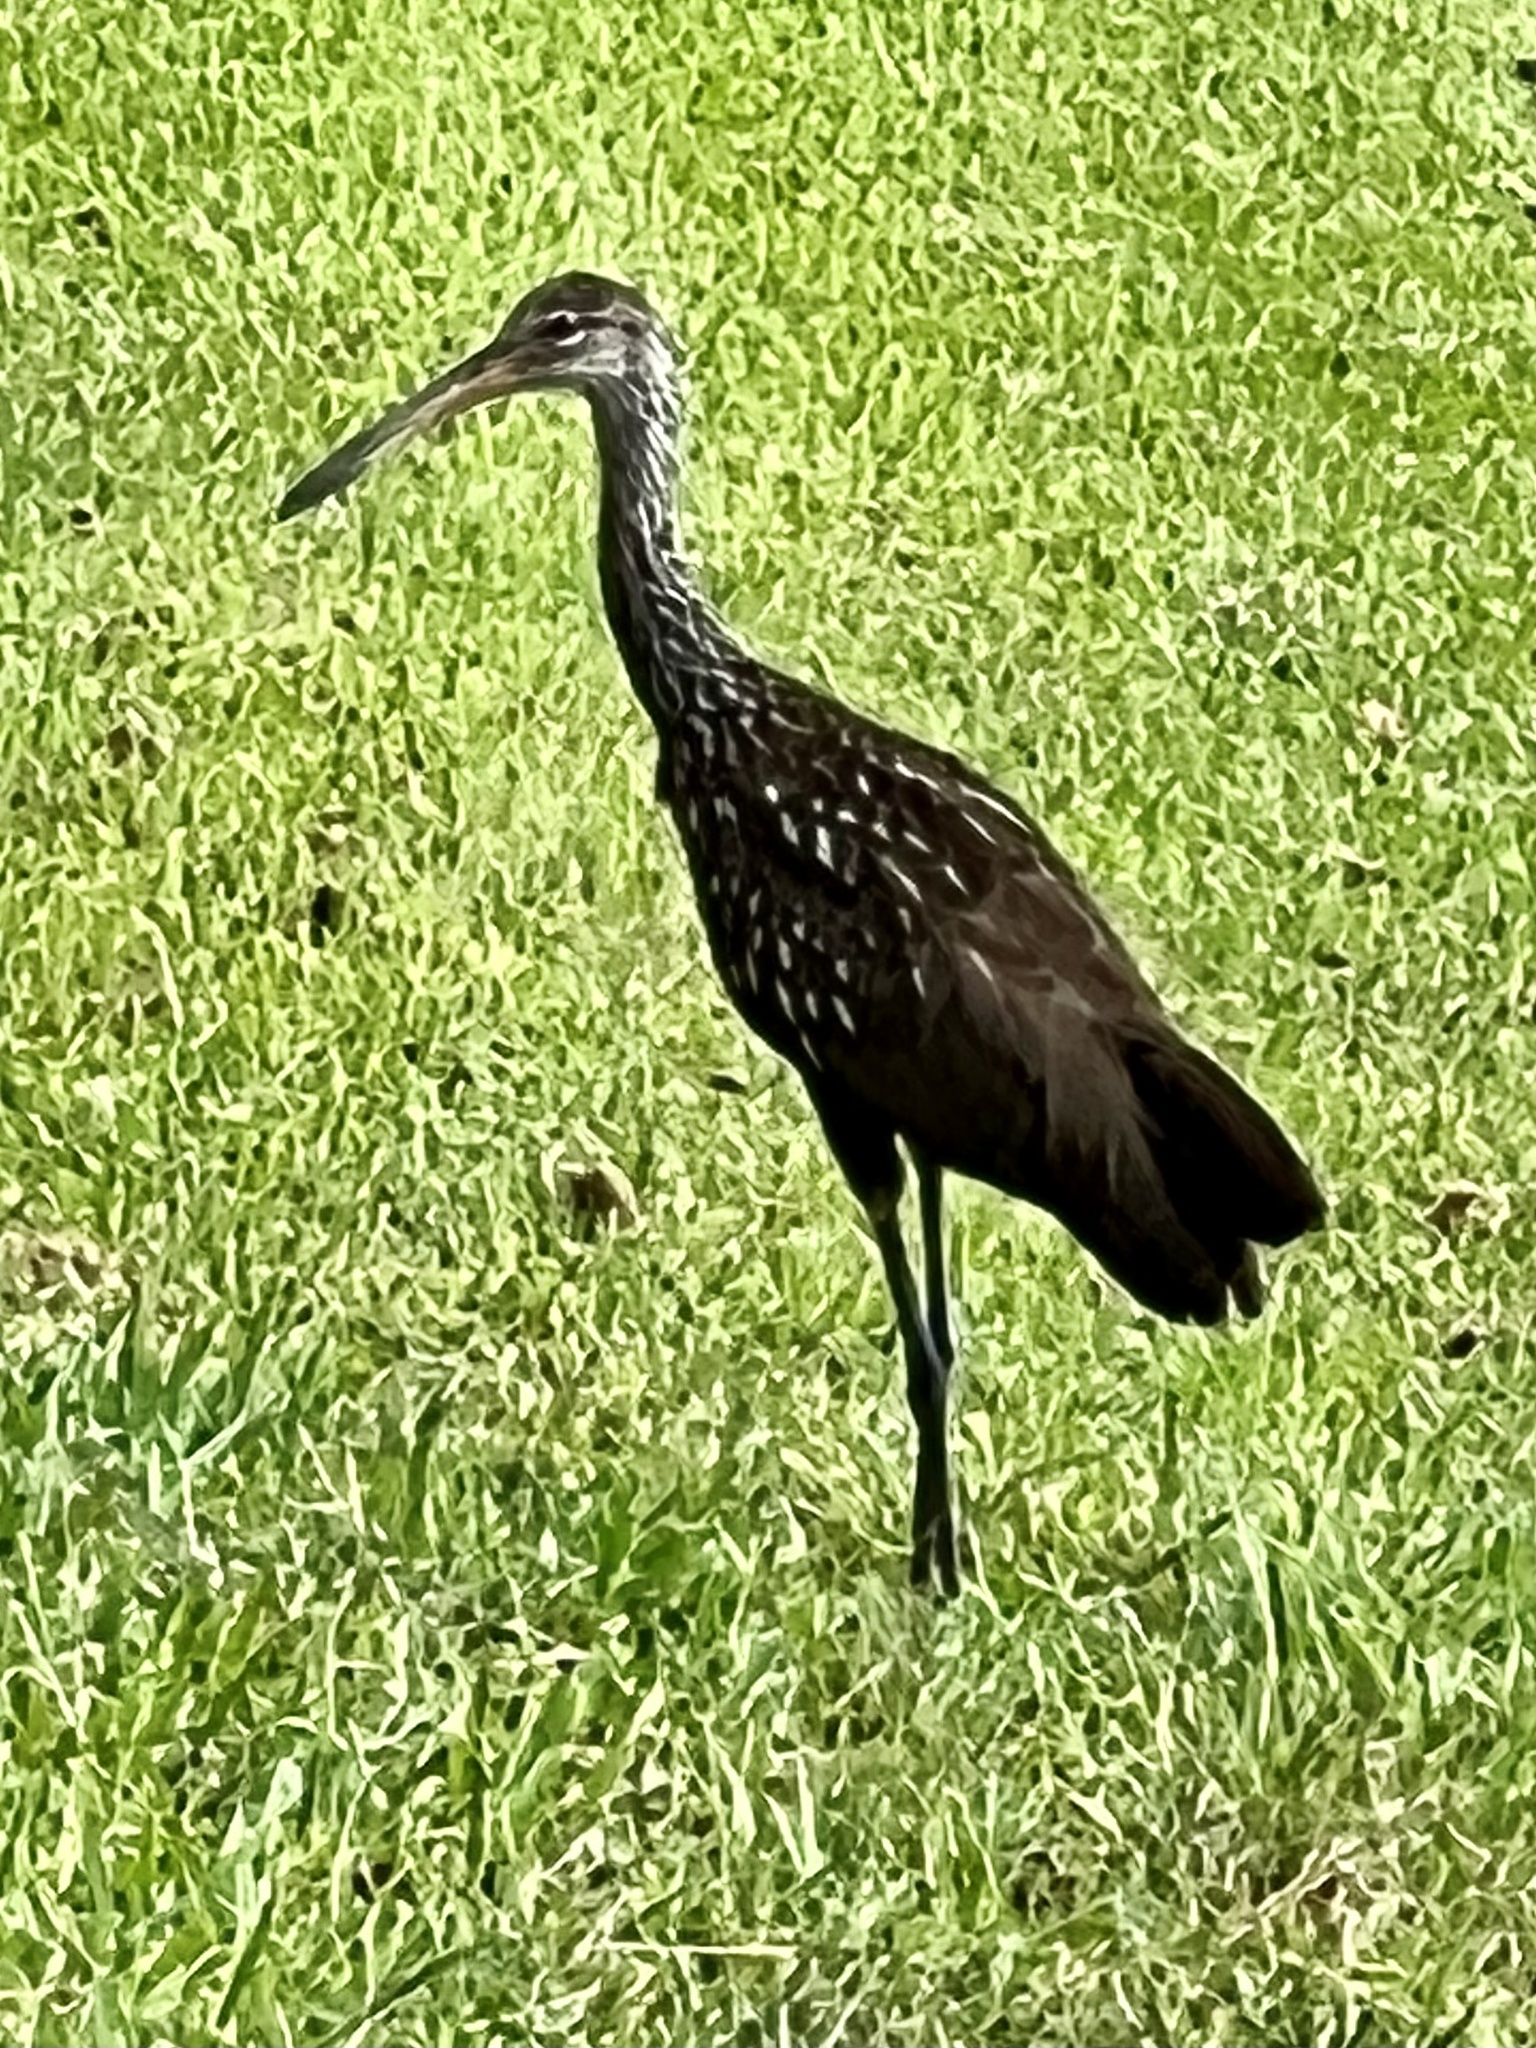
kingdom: Animalia
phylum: Chordata
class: Aves
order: Gruiformes
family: Aramidae
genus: Aramus
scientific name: Aramus guarauna
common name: Limpkin
